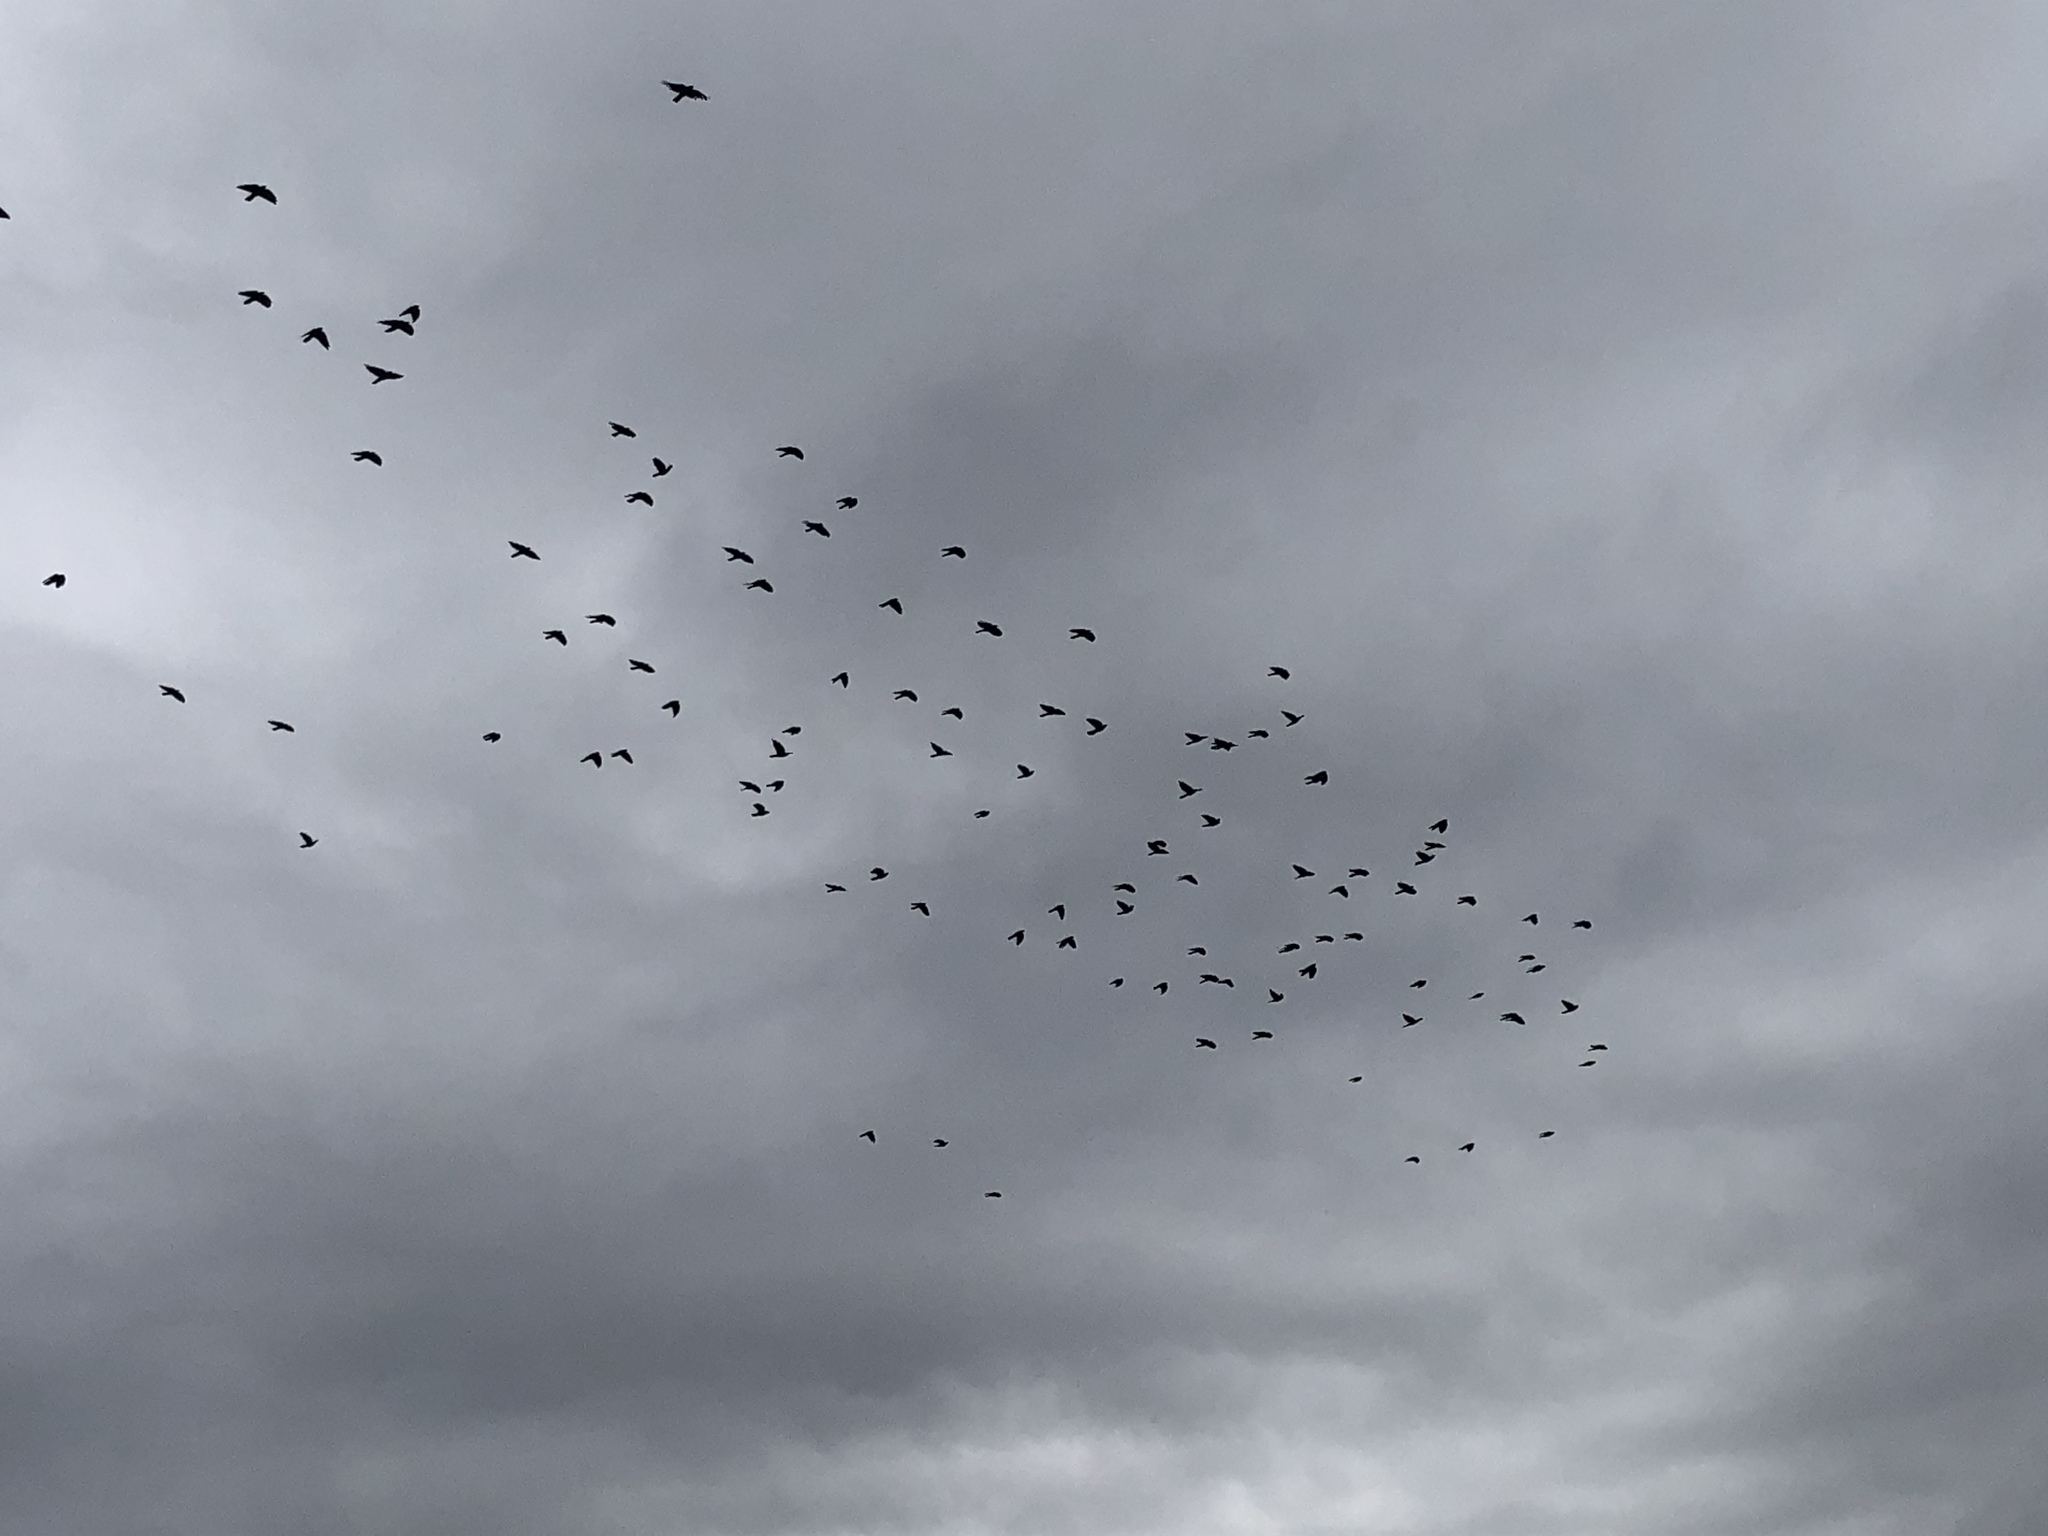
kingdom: Animalia
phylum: Chordata
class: Aves
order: Passeriformes
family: Corvidae
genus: Pyrrhocorax
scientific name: Pyrrhocorax graculus
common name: Alpine chough
